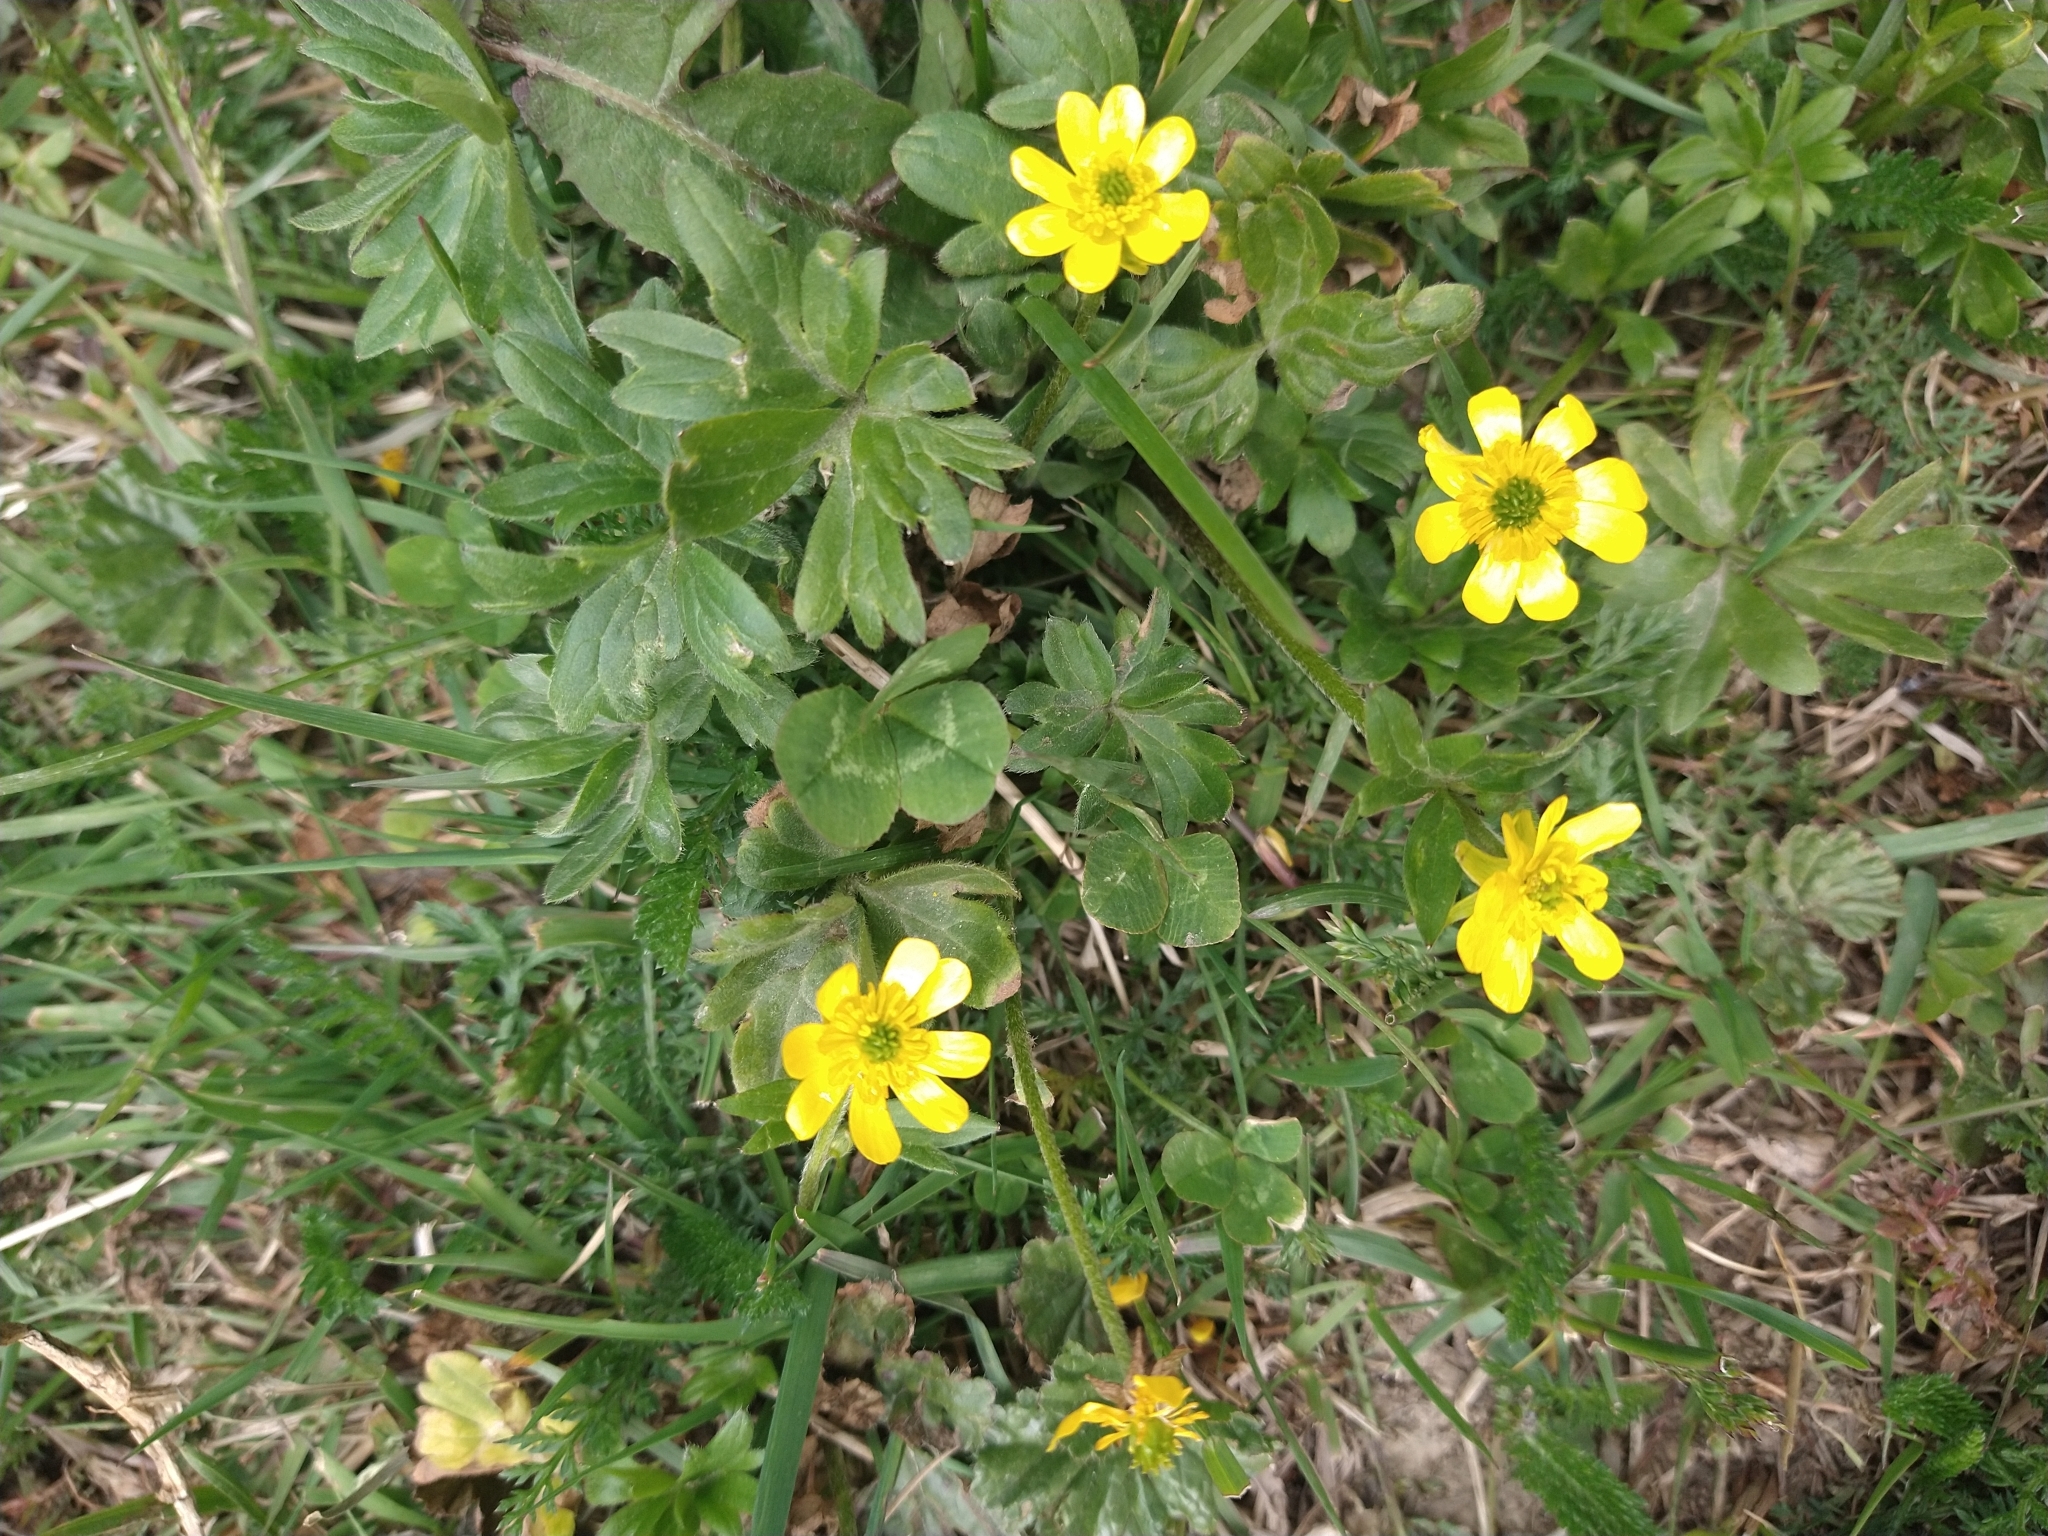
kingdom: Plantae
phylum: Tracheophyta
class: Magnoliopsida
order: Ranunculales
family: Ranunculaceae
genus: Ranunculus
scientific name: Ranunculus peduncularis
